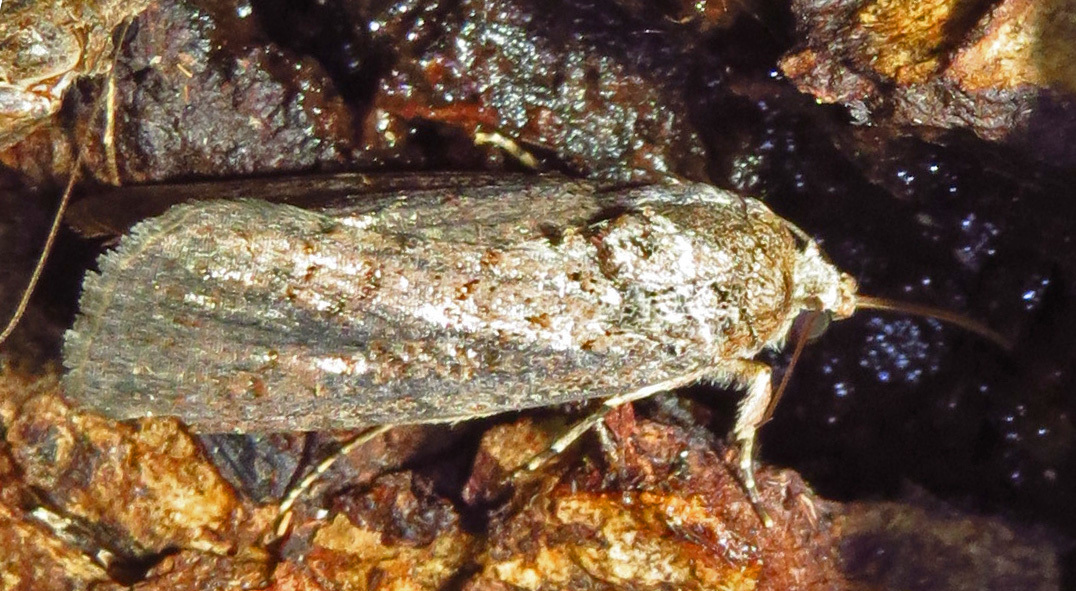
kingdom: Animalia
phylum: Arthropoda
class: Insecta
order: Lepidoptera
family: Noctuidae
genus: Spodoptera
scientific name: Spodoptera frugiperda
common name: Fall armyworm
